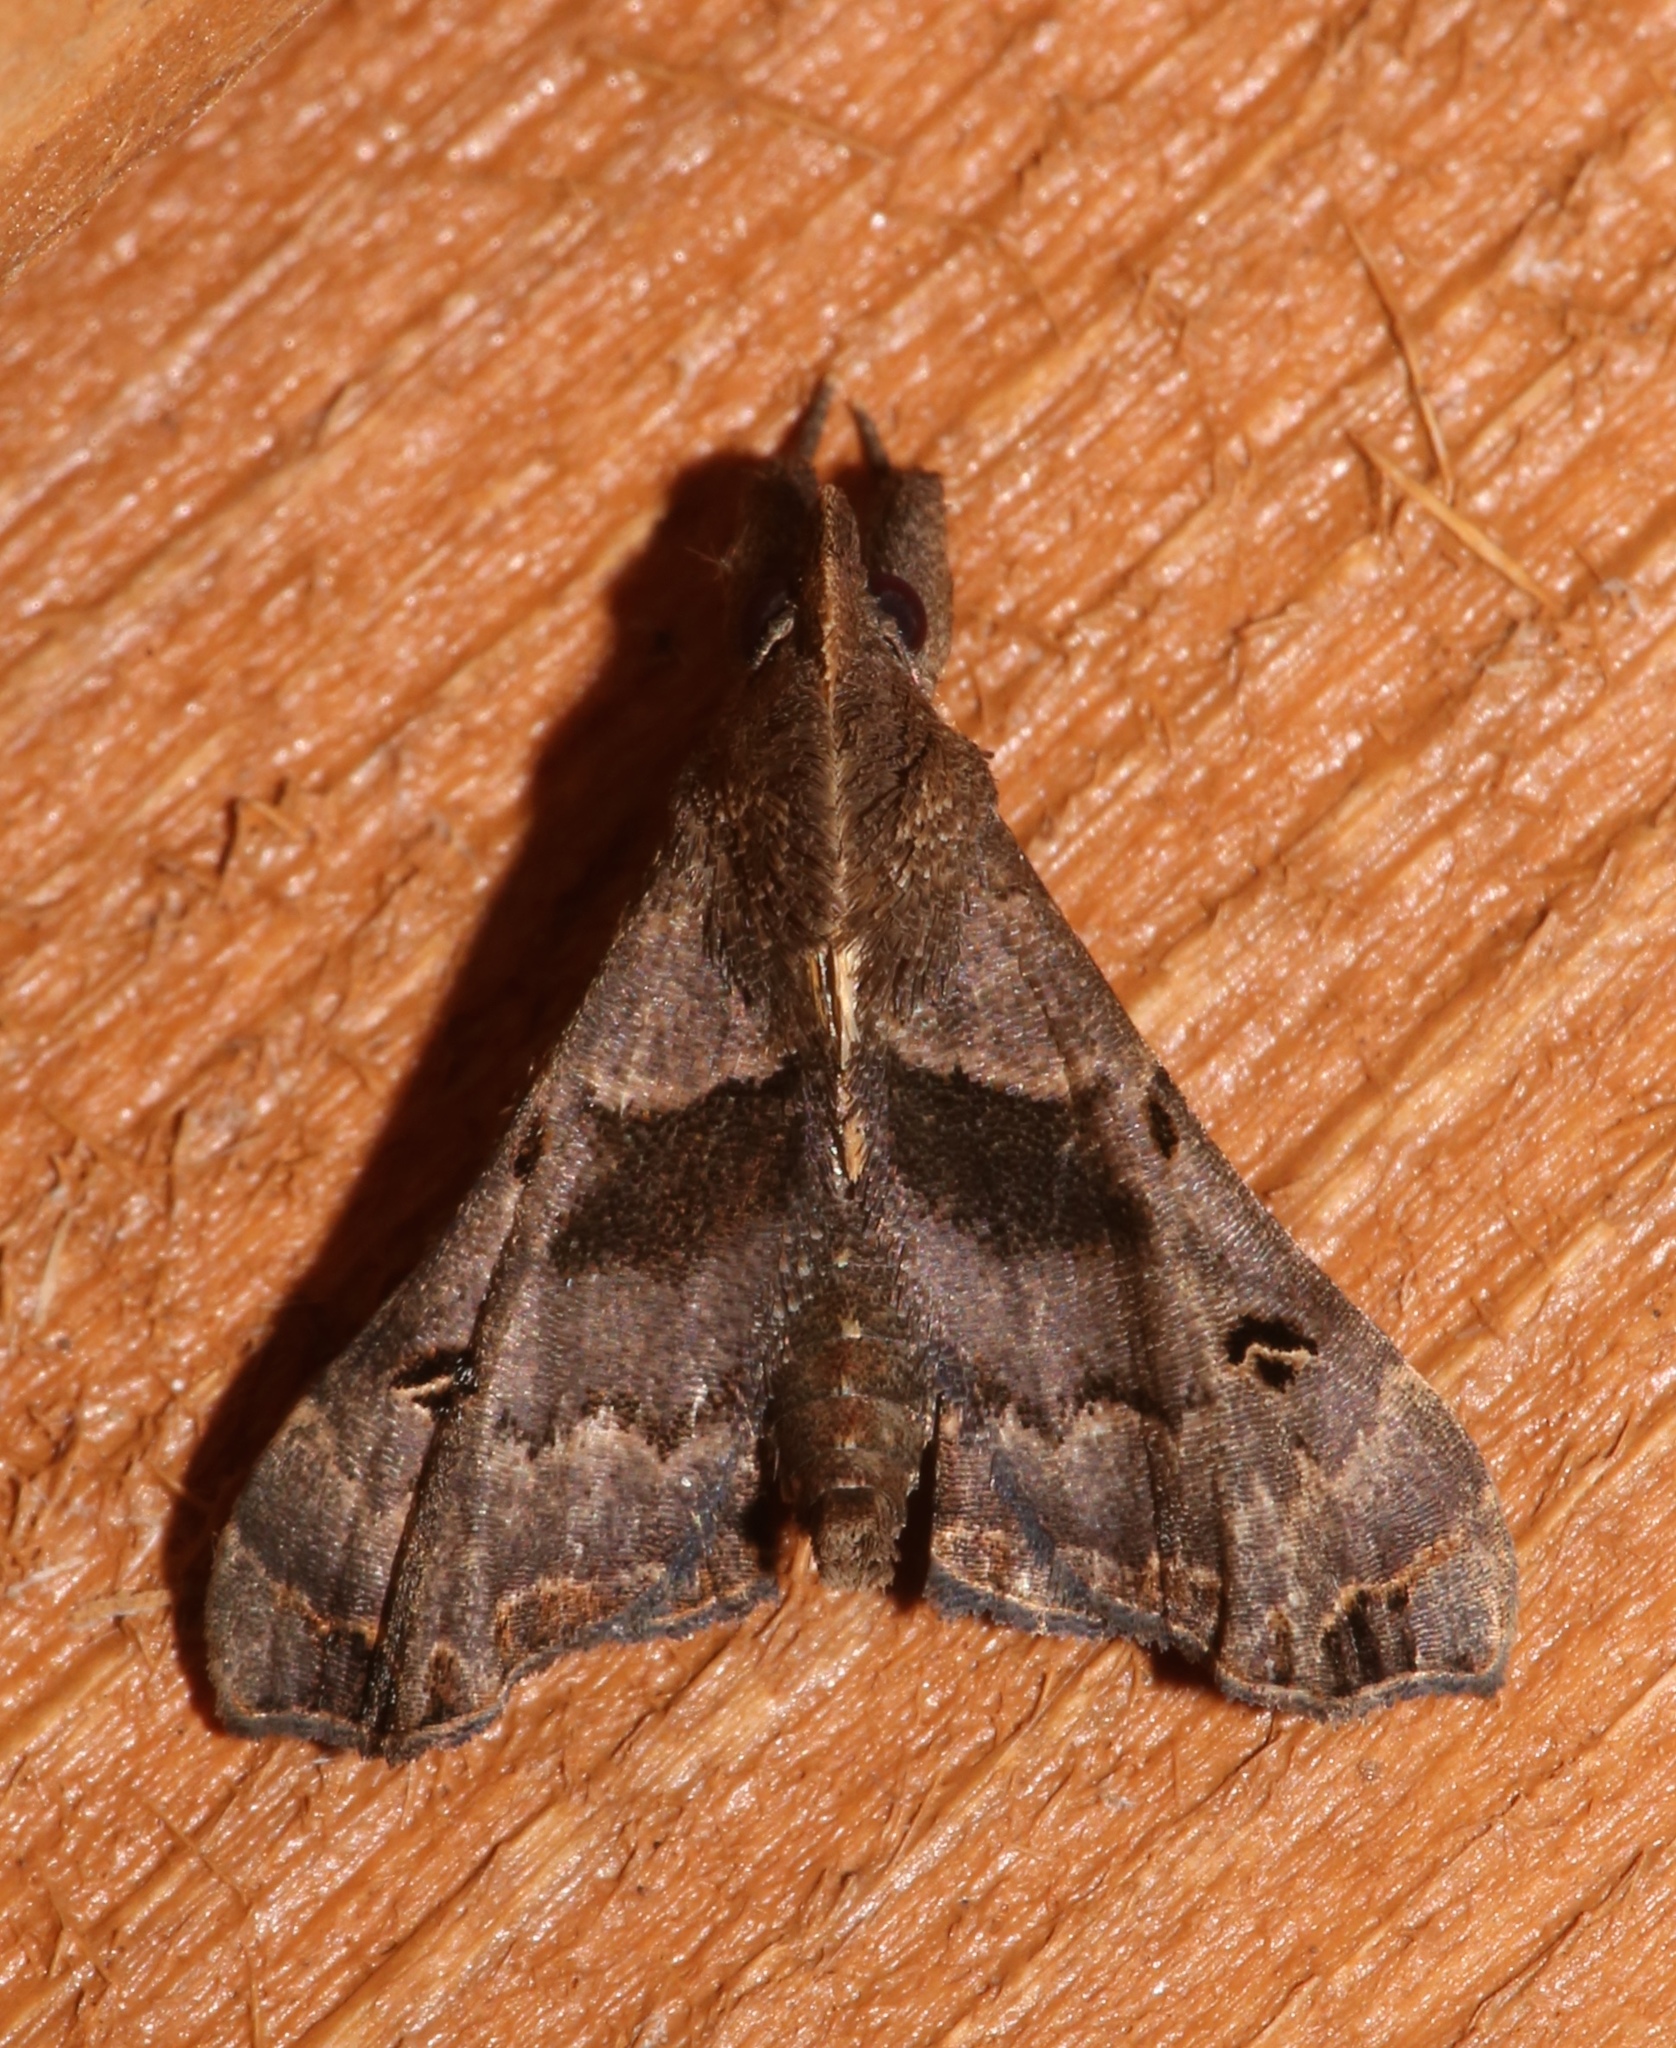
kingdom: Animalia
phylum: Arthropoda
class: Insecta
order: Lepidoptera
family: Erebidae
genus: Palthis
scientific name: Palthis asopialis
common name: Faint-spotted palthis moth
